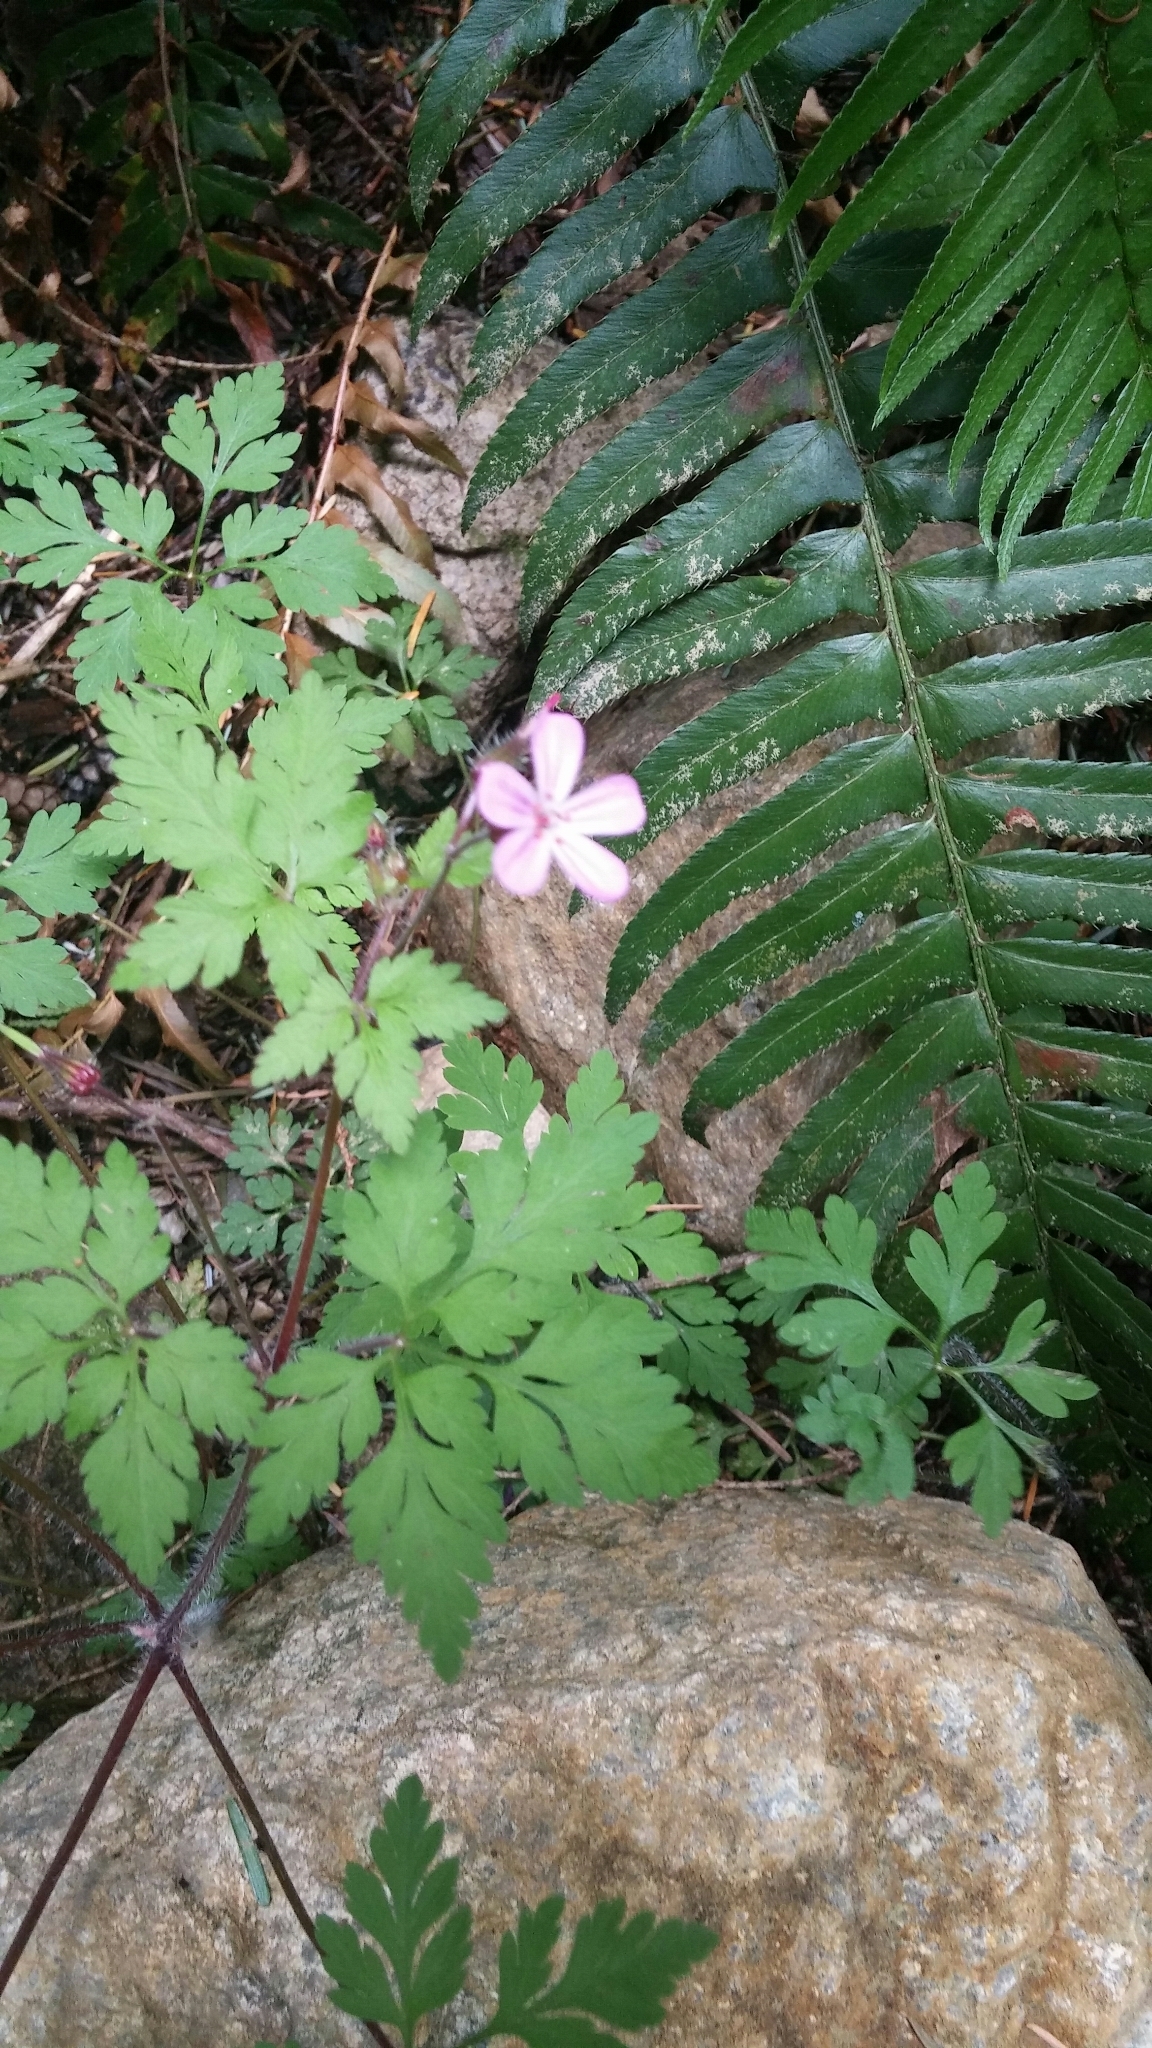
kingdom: Plantae
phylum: Tracheophyta
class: Magnoliopsida
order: Geraniales
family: Geraniaceae
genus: Geranium
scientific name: Geranium robertianum
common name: Herb-robert
